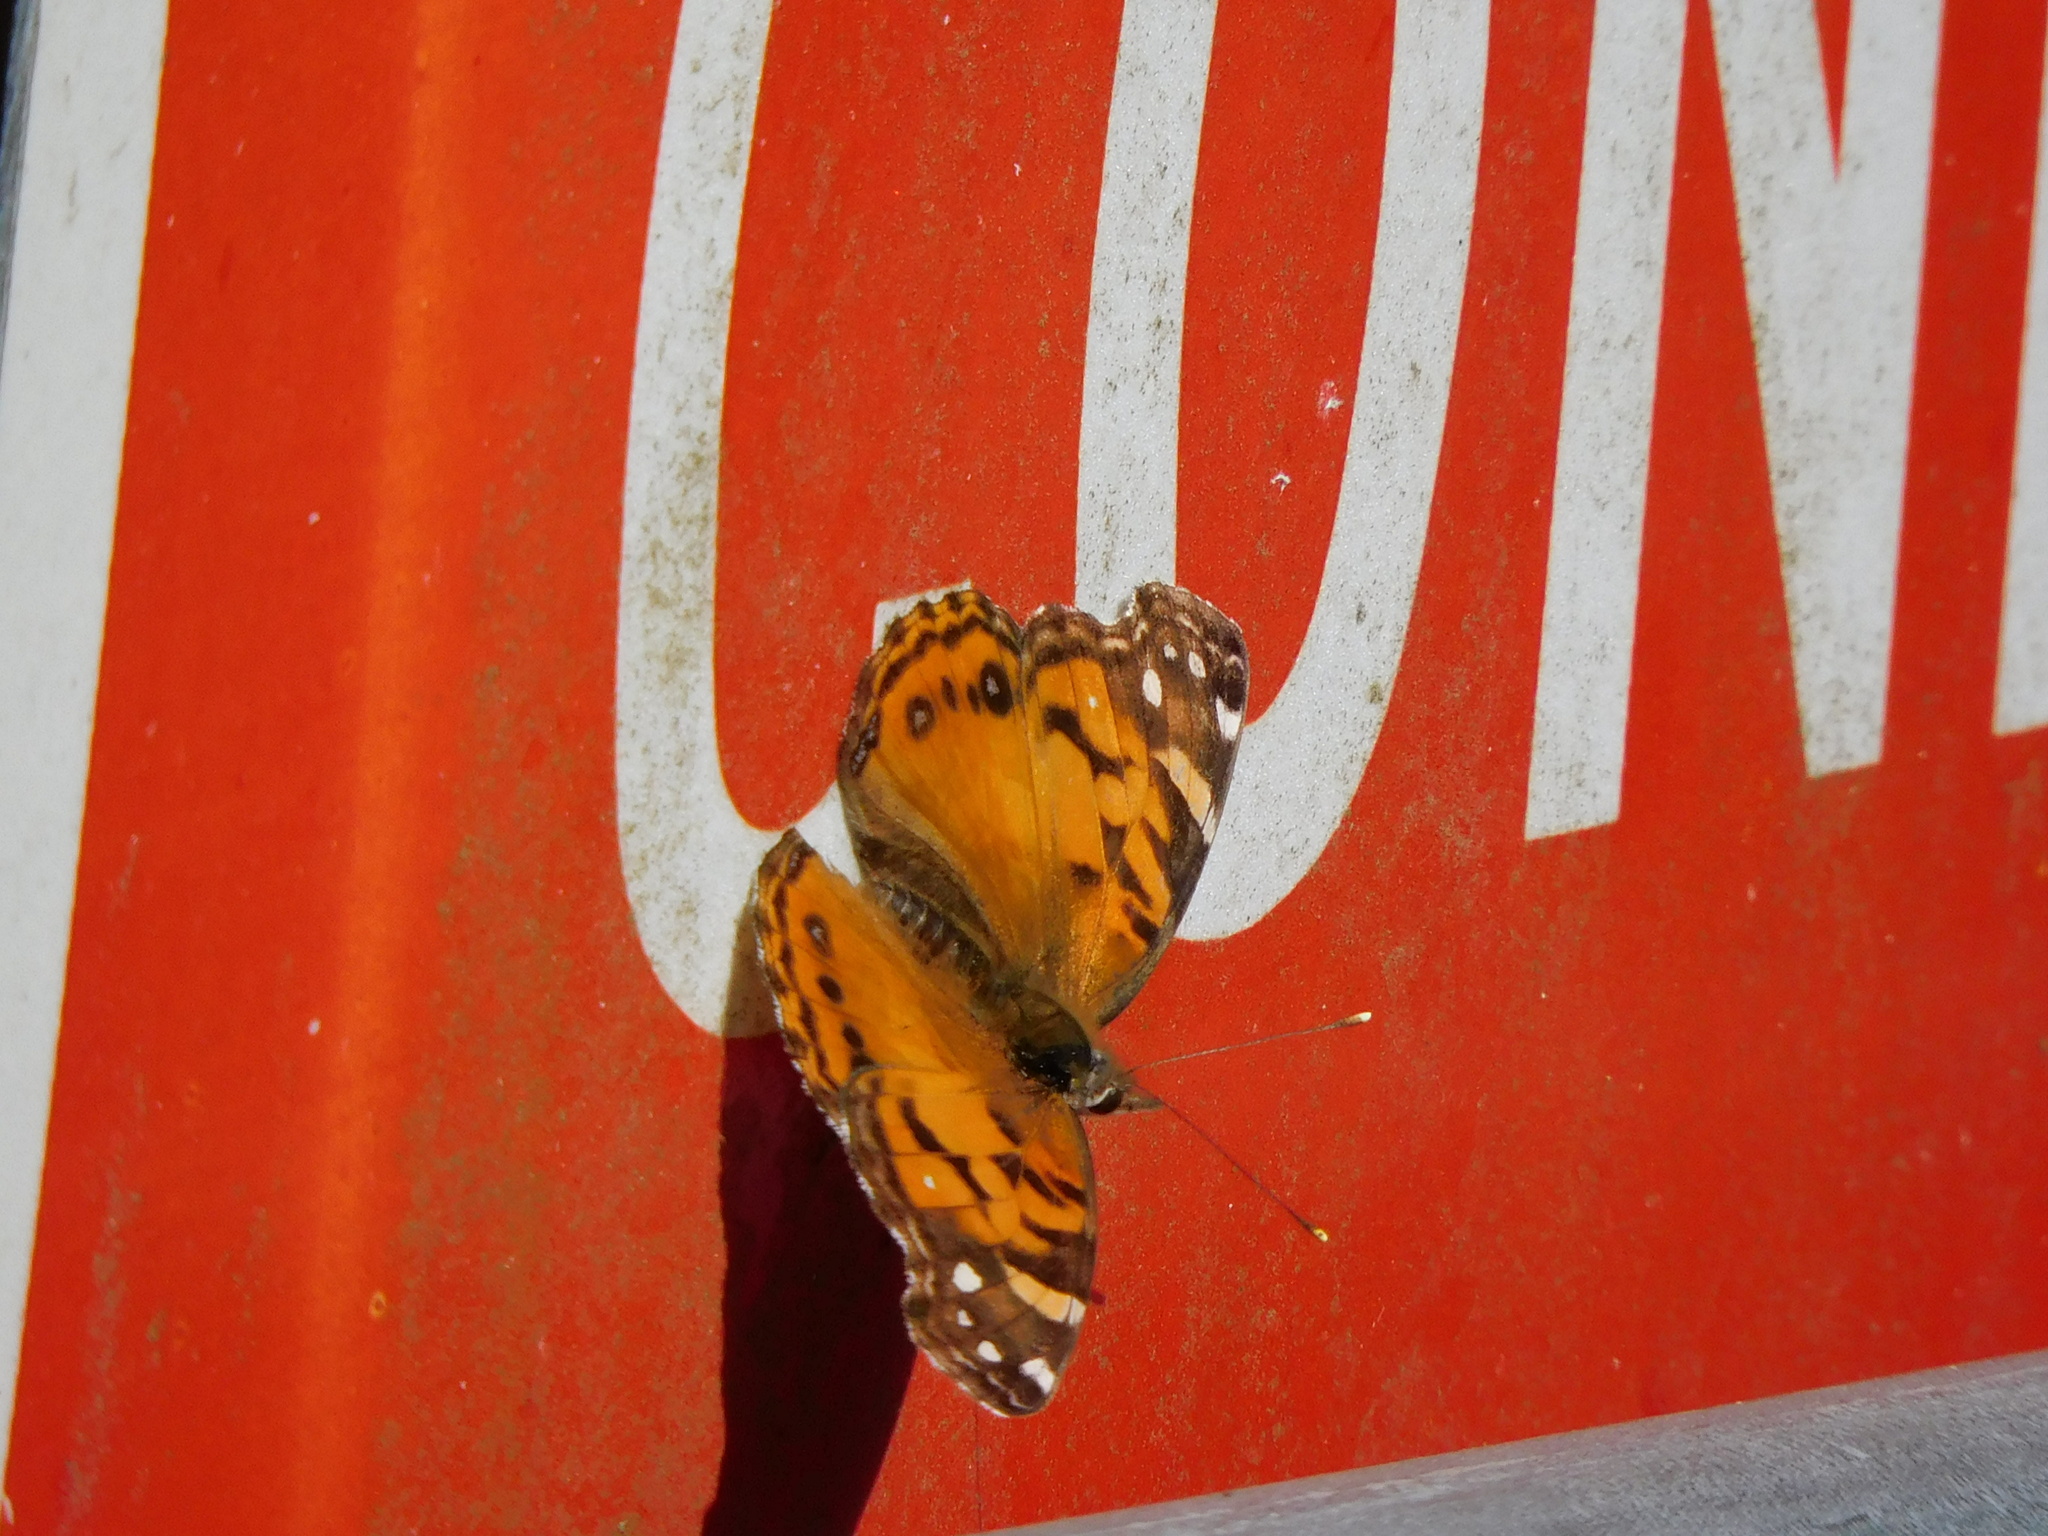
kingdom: Animalia
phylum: Arthropoda
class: Insecta
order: Lepidoptera
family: Nymphalidae
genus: Vanessa
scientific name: Vanessa virginiensis
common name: American lady
